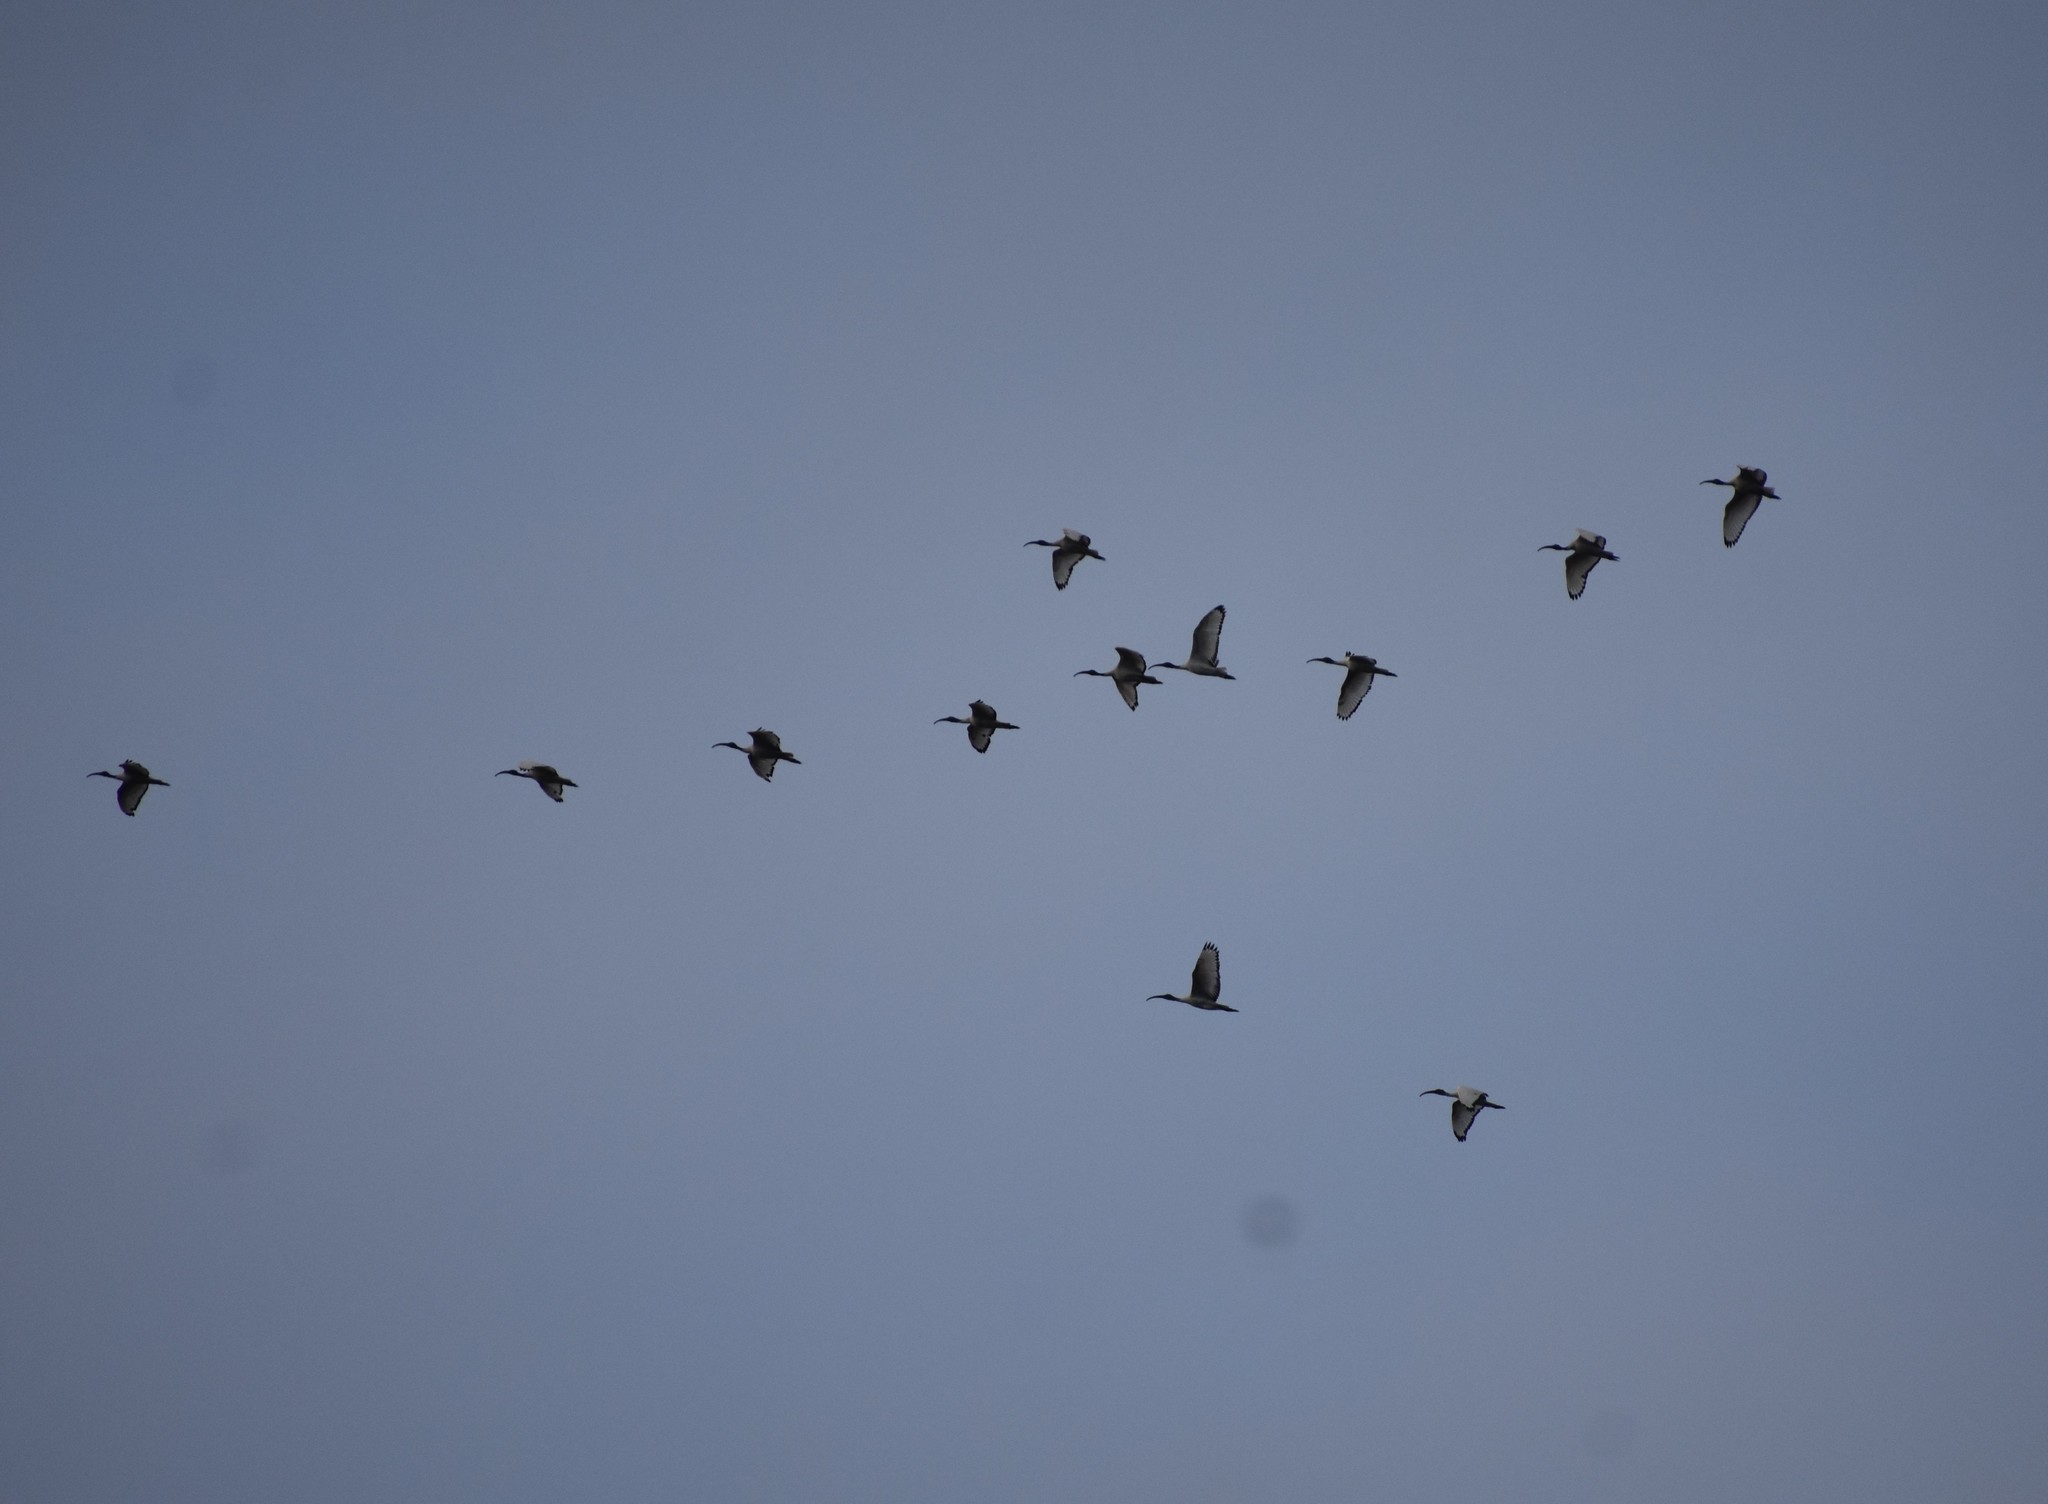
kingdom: Animalia
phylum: Chordata
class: Aves
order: Pelecaniformes
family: Threskiornithidae
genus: Threskiornis
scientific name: Threskiornis aethiopicus
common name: Sacred ibis
